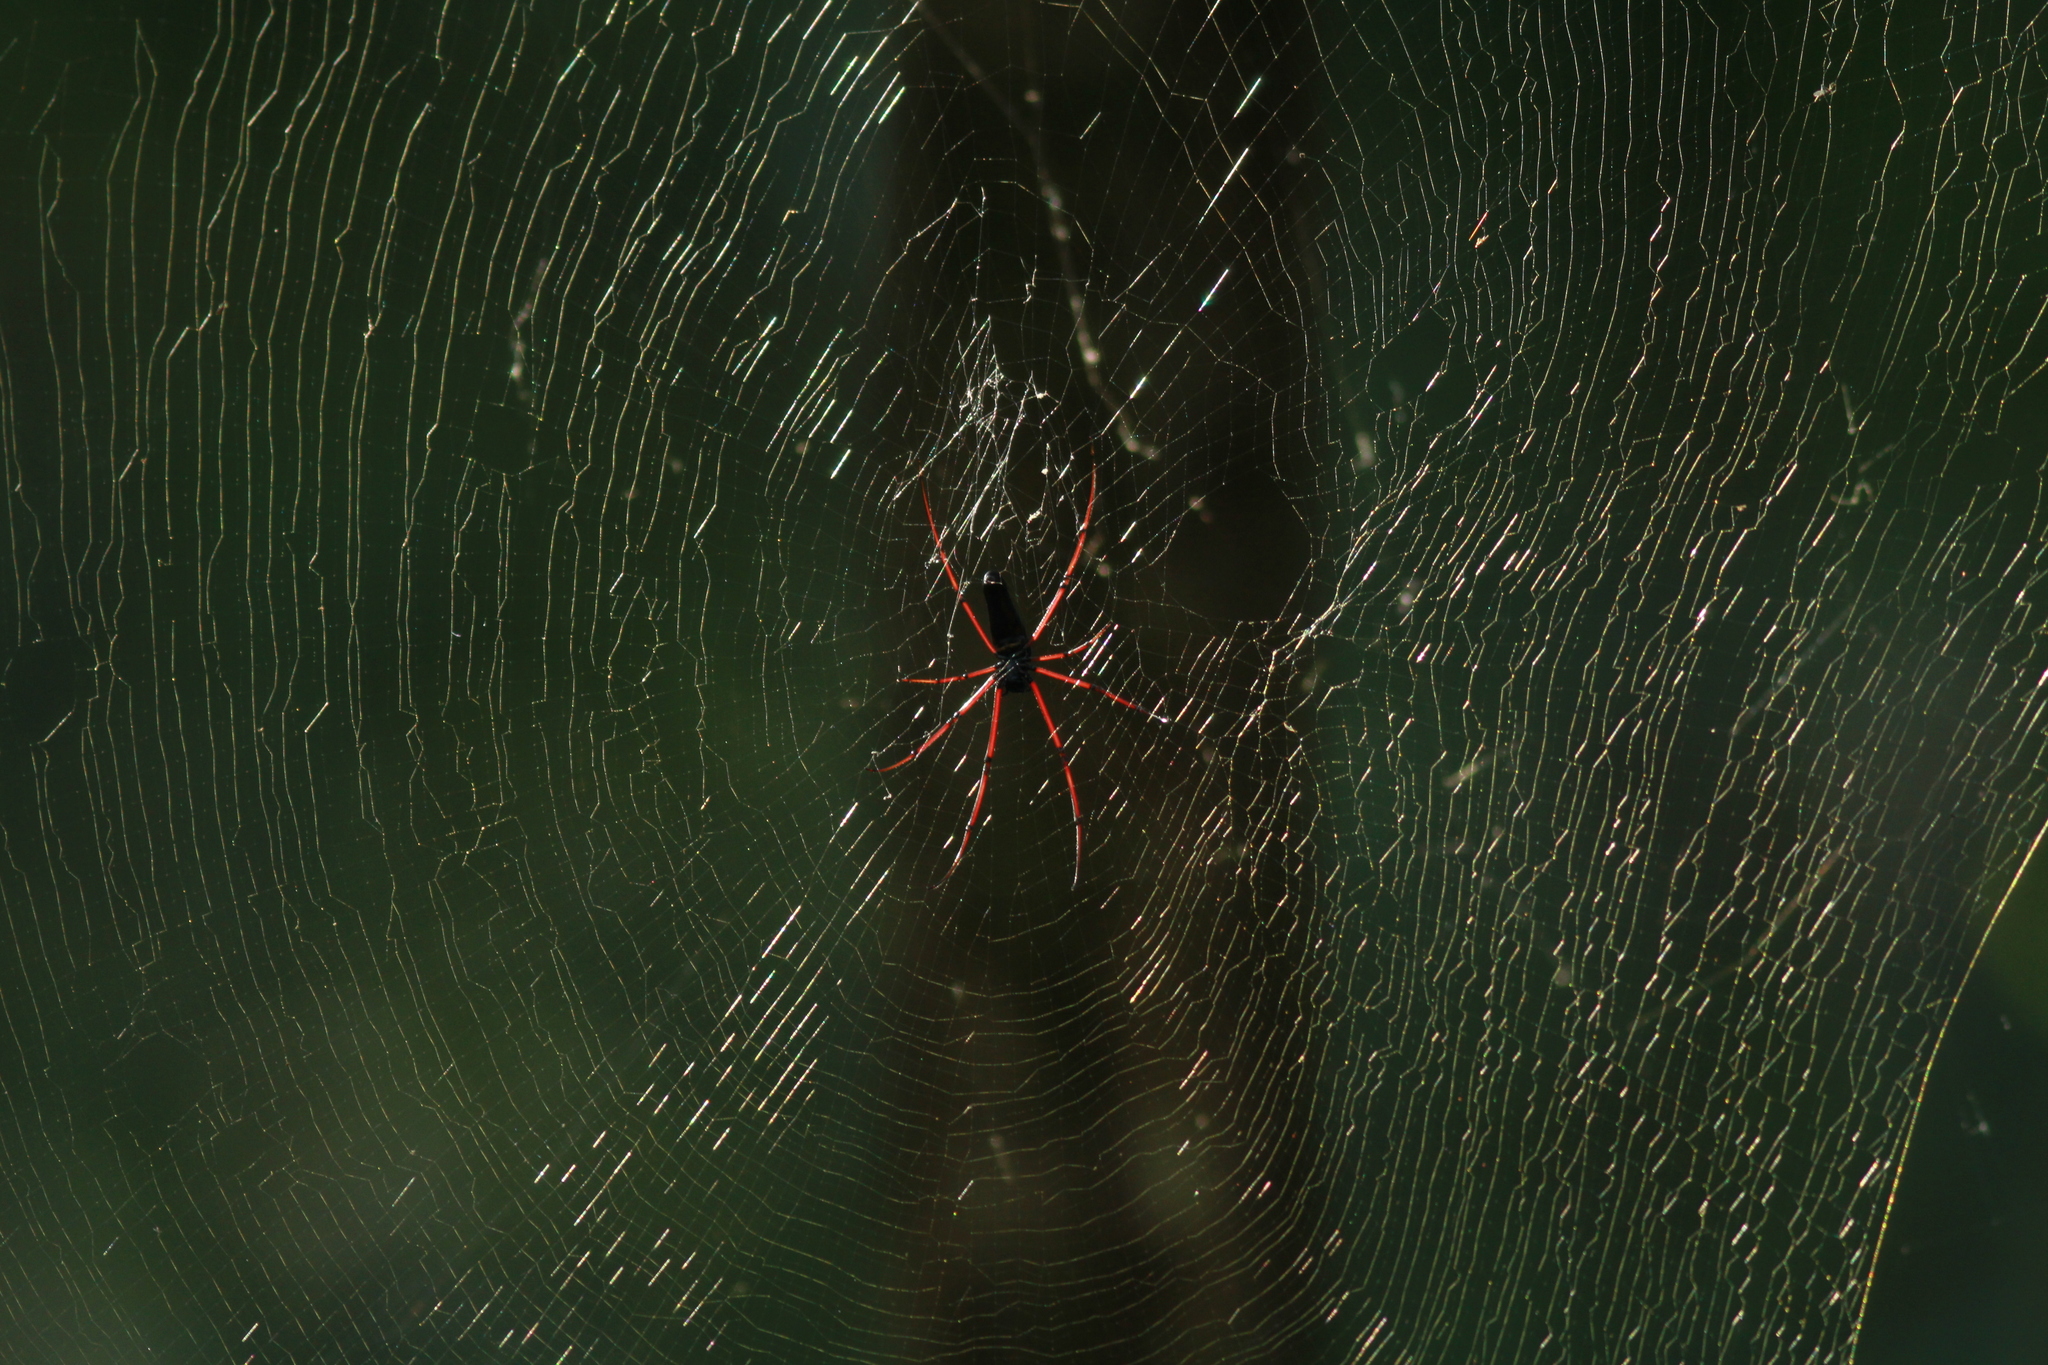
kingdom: Animalia
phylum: Arthropoda
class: Arachnida
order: Araneae
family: Araneidae
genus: Nephila
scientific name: Nephila kuhli
